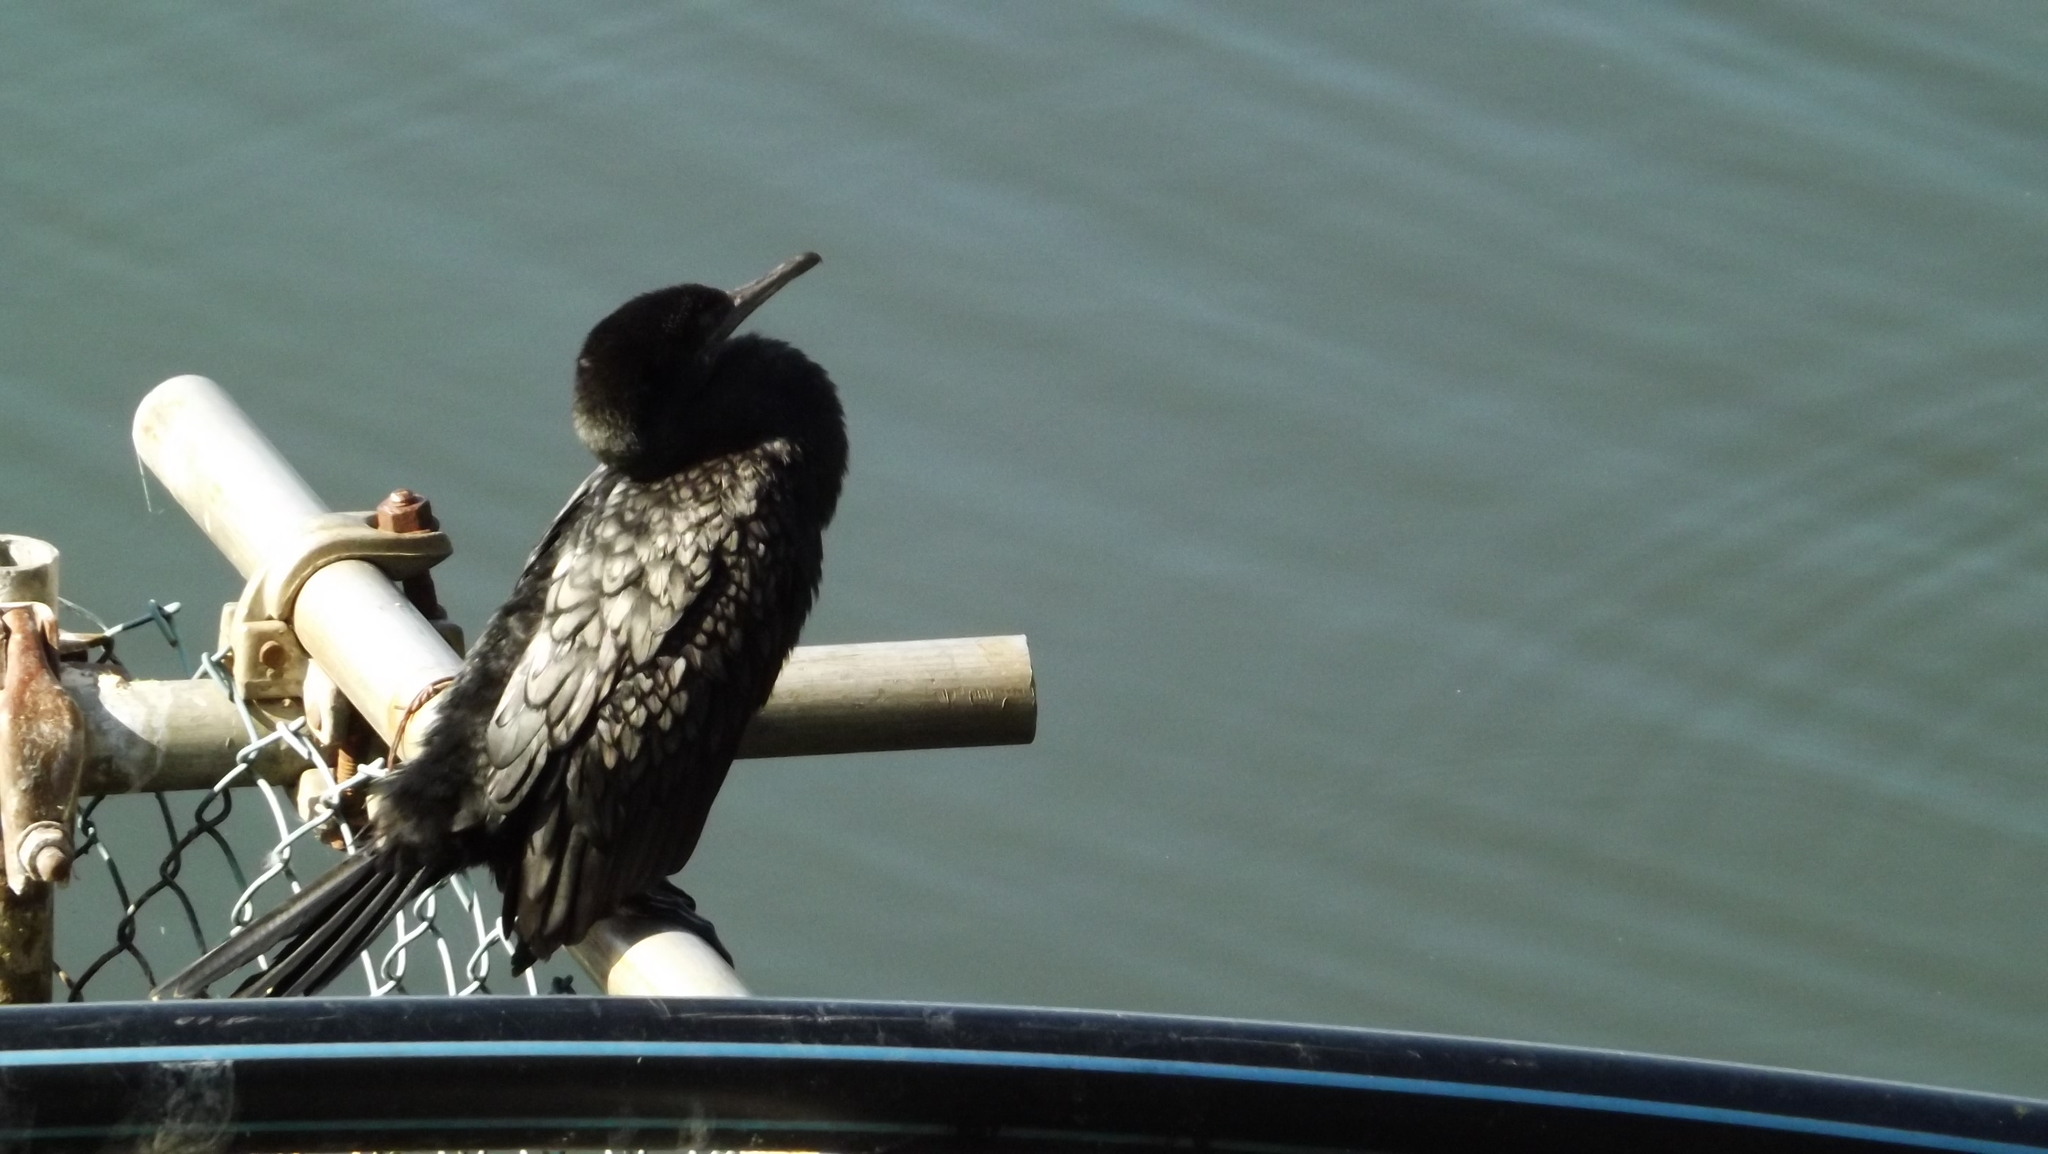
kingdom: Animalia
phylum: Chordata
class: Aves
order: Suliformes
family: Phalacrocoracidae
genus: Phalacrocorax
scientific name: Phalacrocorax sulcirostris
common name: Little black cormorant
